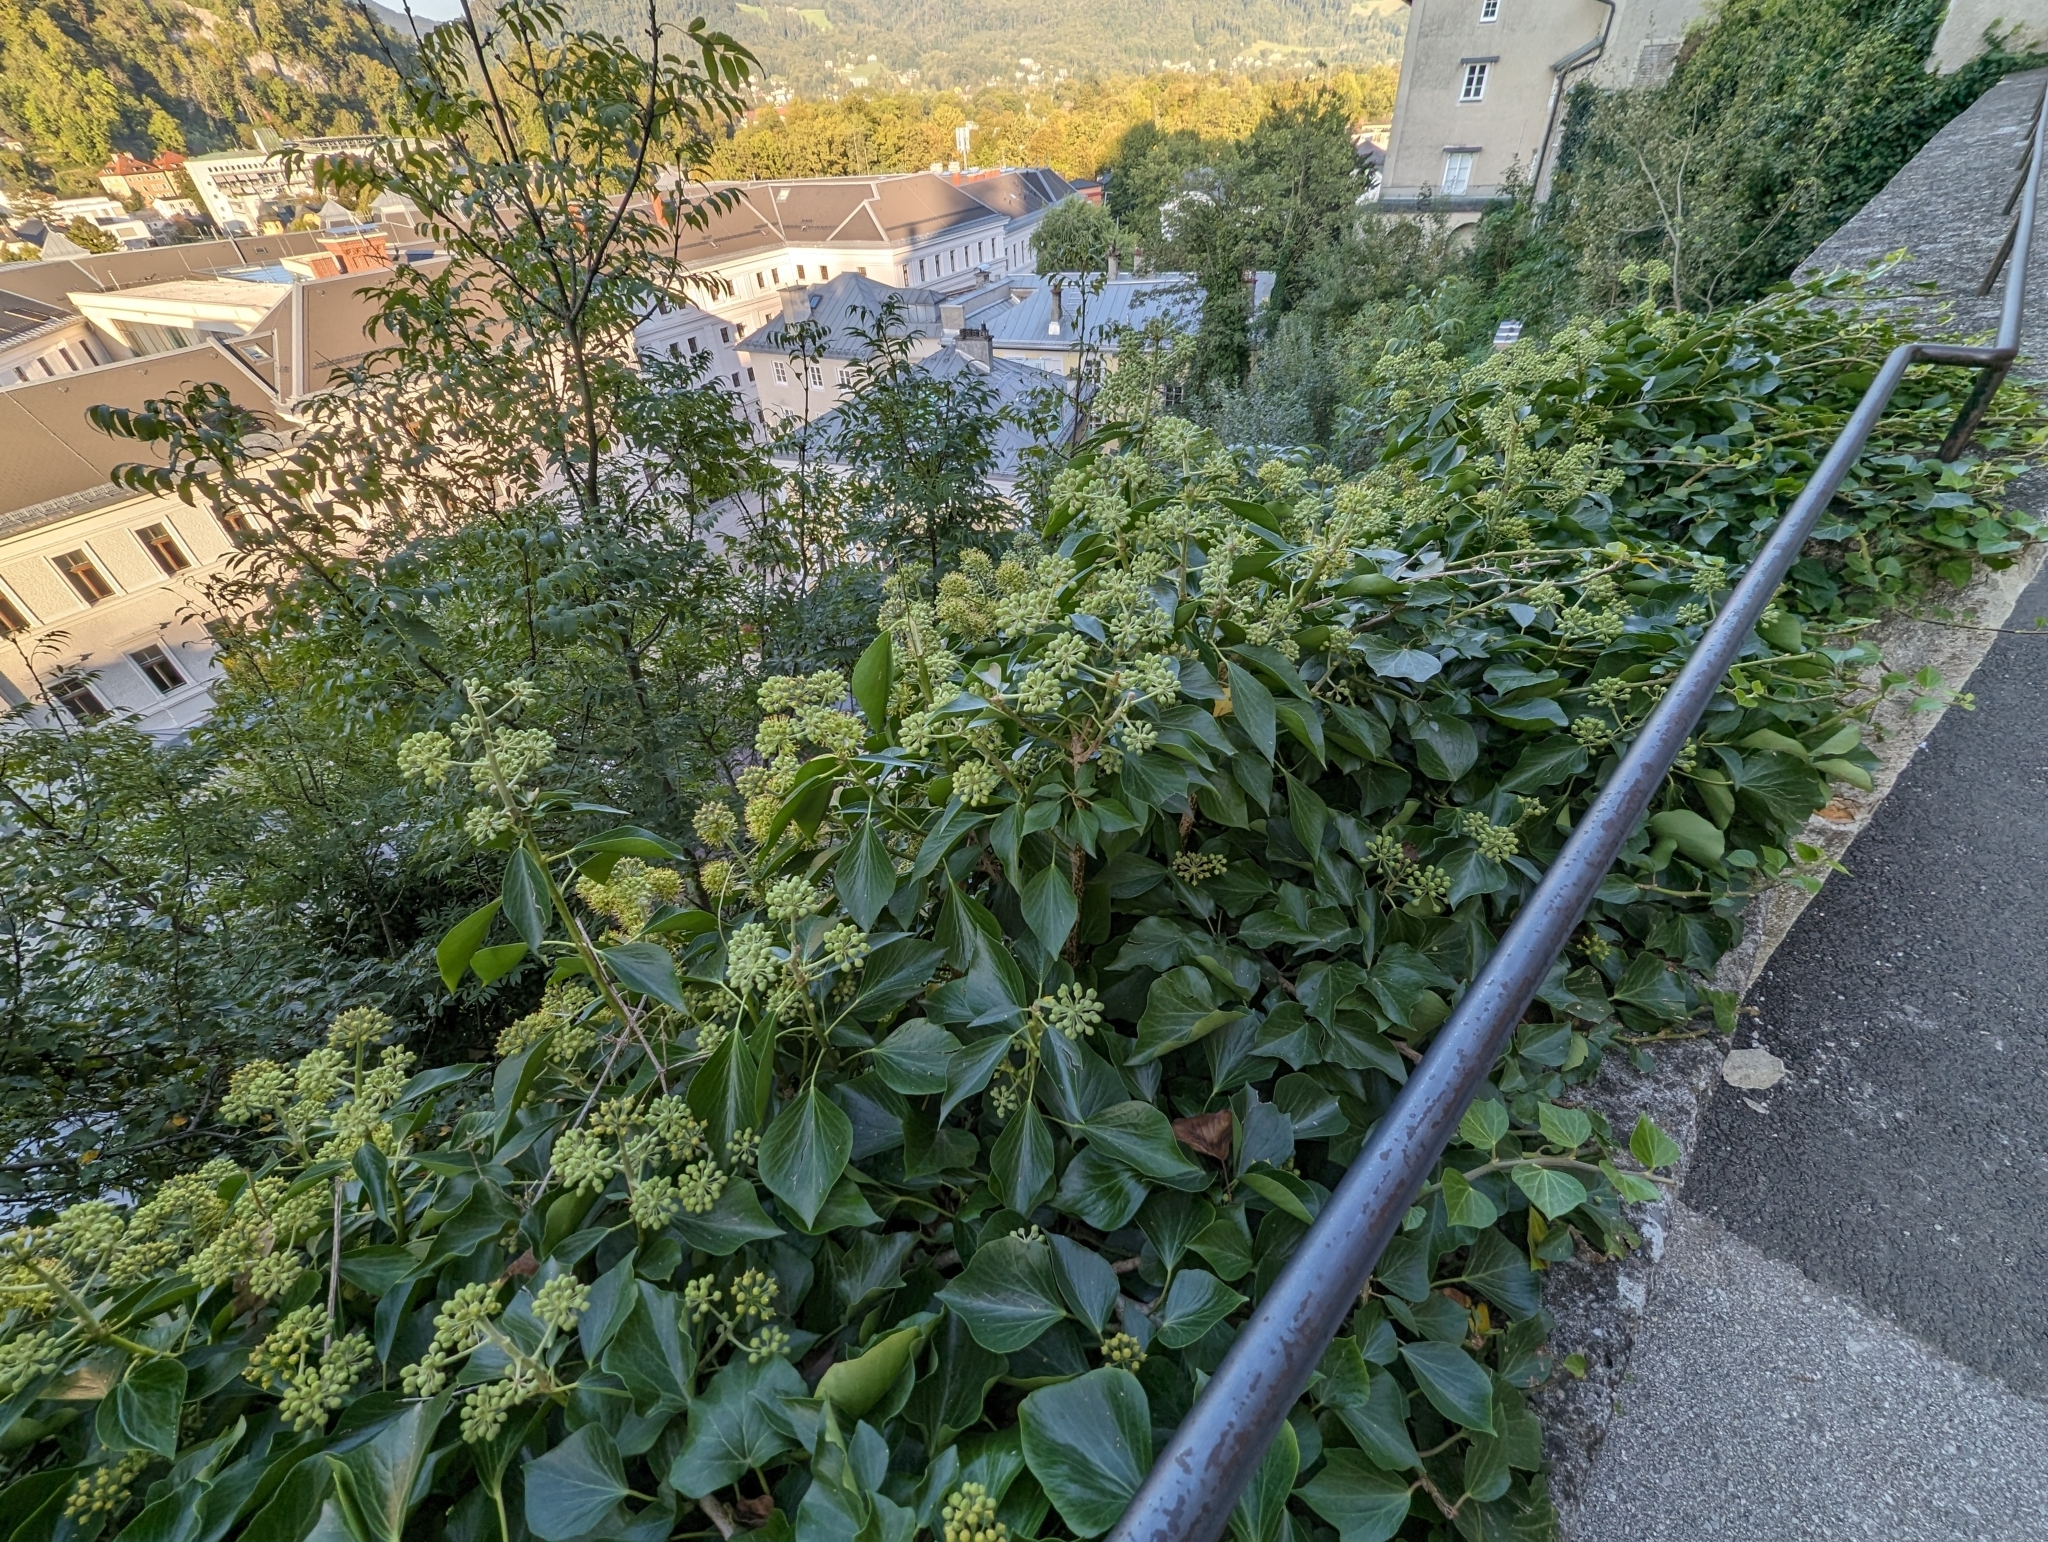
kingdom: Plantae
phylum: Tracheophyta
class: Magnoliopsida
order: Apiales
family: Araliaceae
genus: Hedera
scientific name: Hedera helix
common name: Ivy
